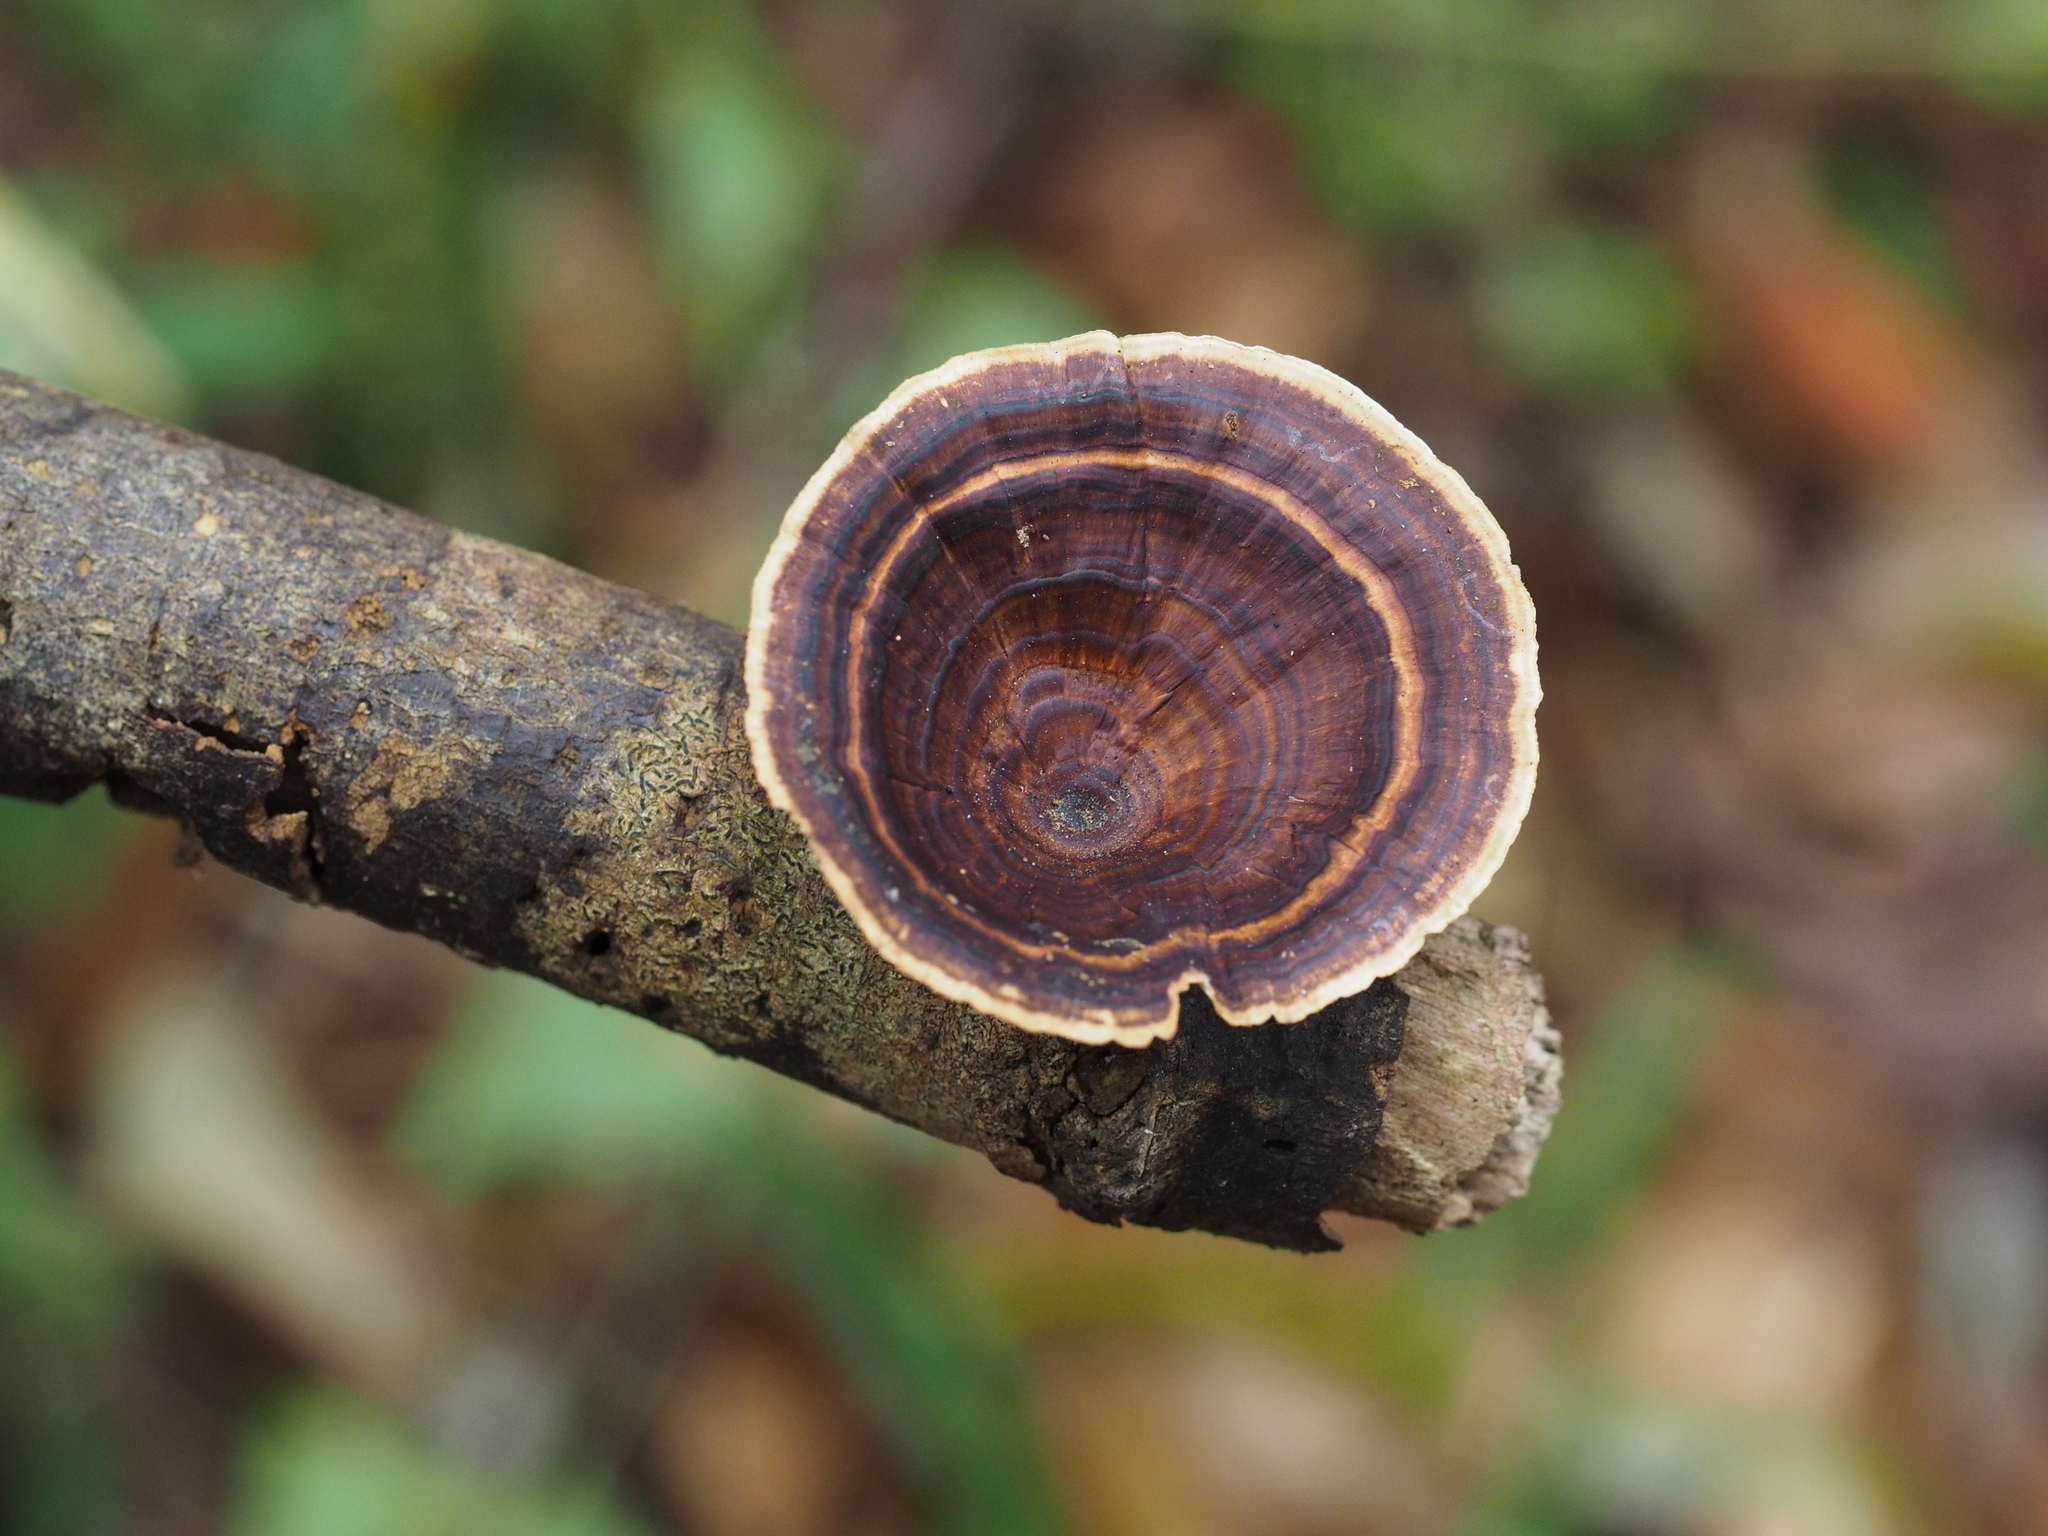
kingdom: Fungi
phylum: Basidiomycota
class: Agaricomycetes
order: Polyporales
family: Polyporaceae
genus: Microporus
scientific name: Microporus xanthopus
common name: Yellow-stemmed micropore
